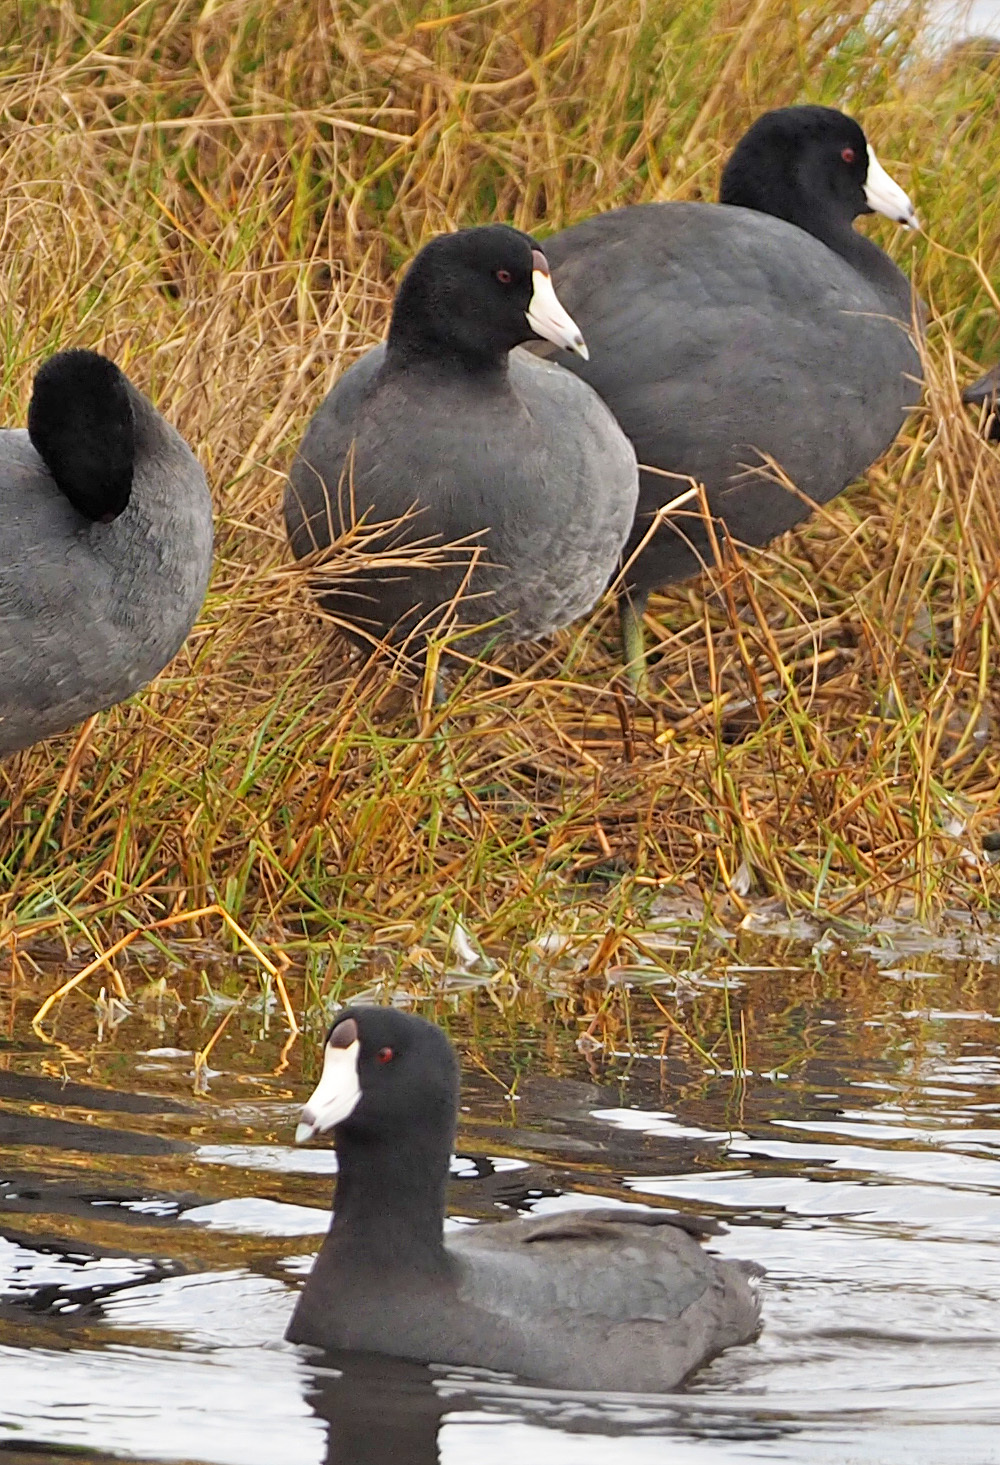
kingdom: Animalia
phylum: Chordata
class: Aves
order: Gruiformes
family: Rallidae
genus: Fulica
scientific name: Fulica americana
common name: American coot
